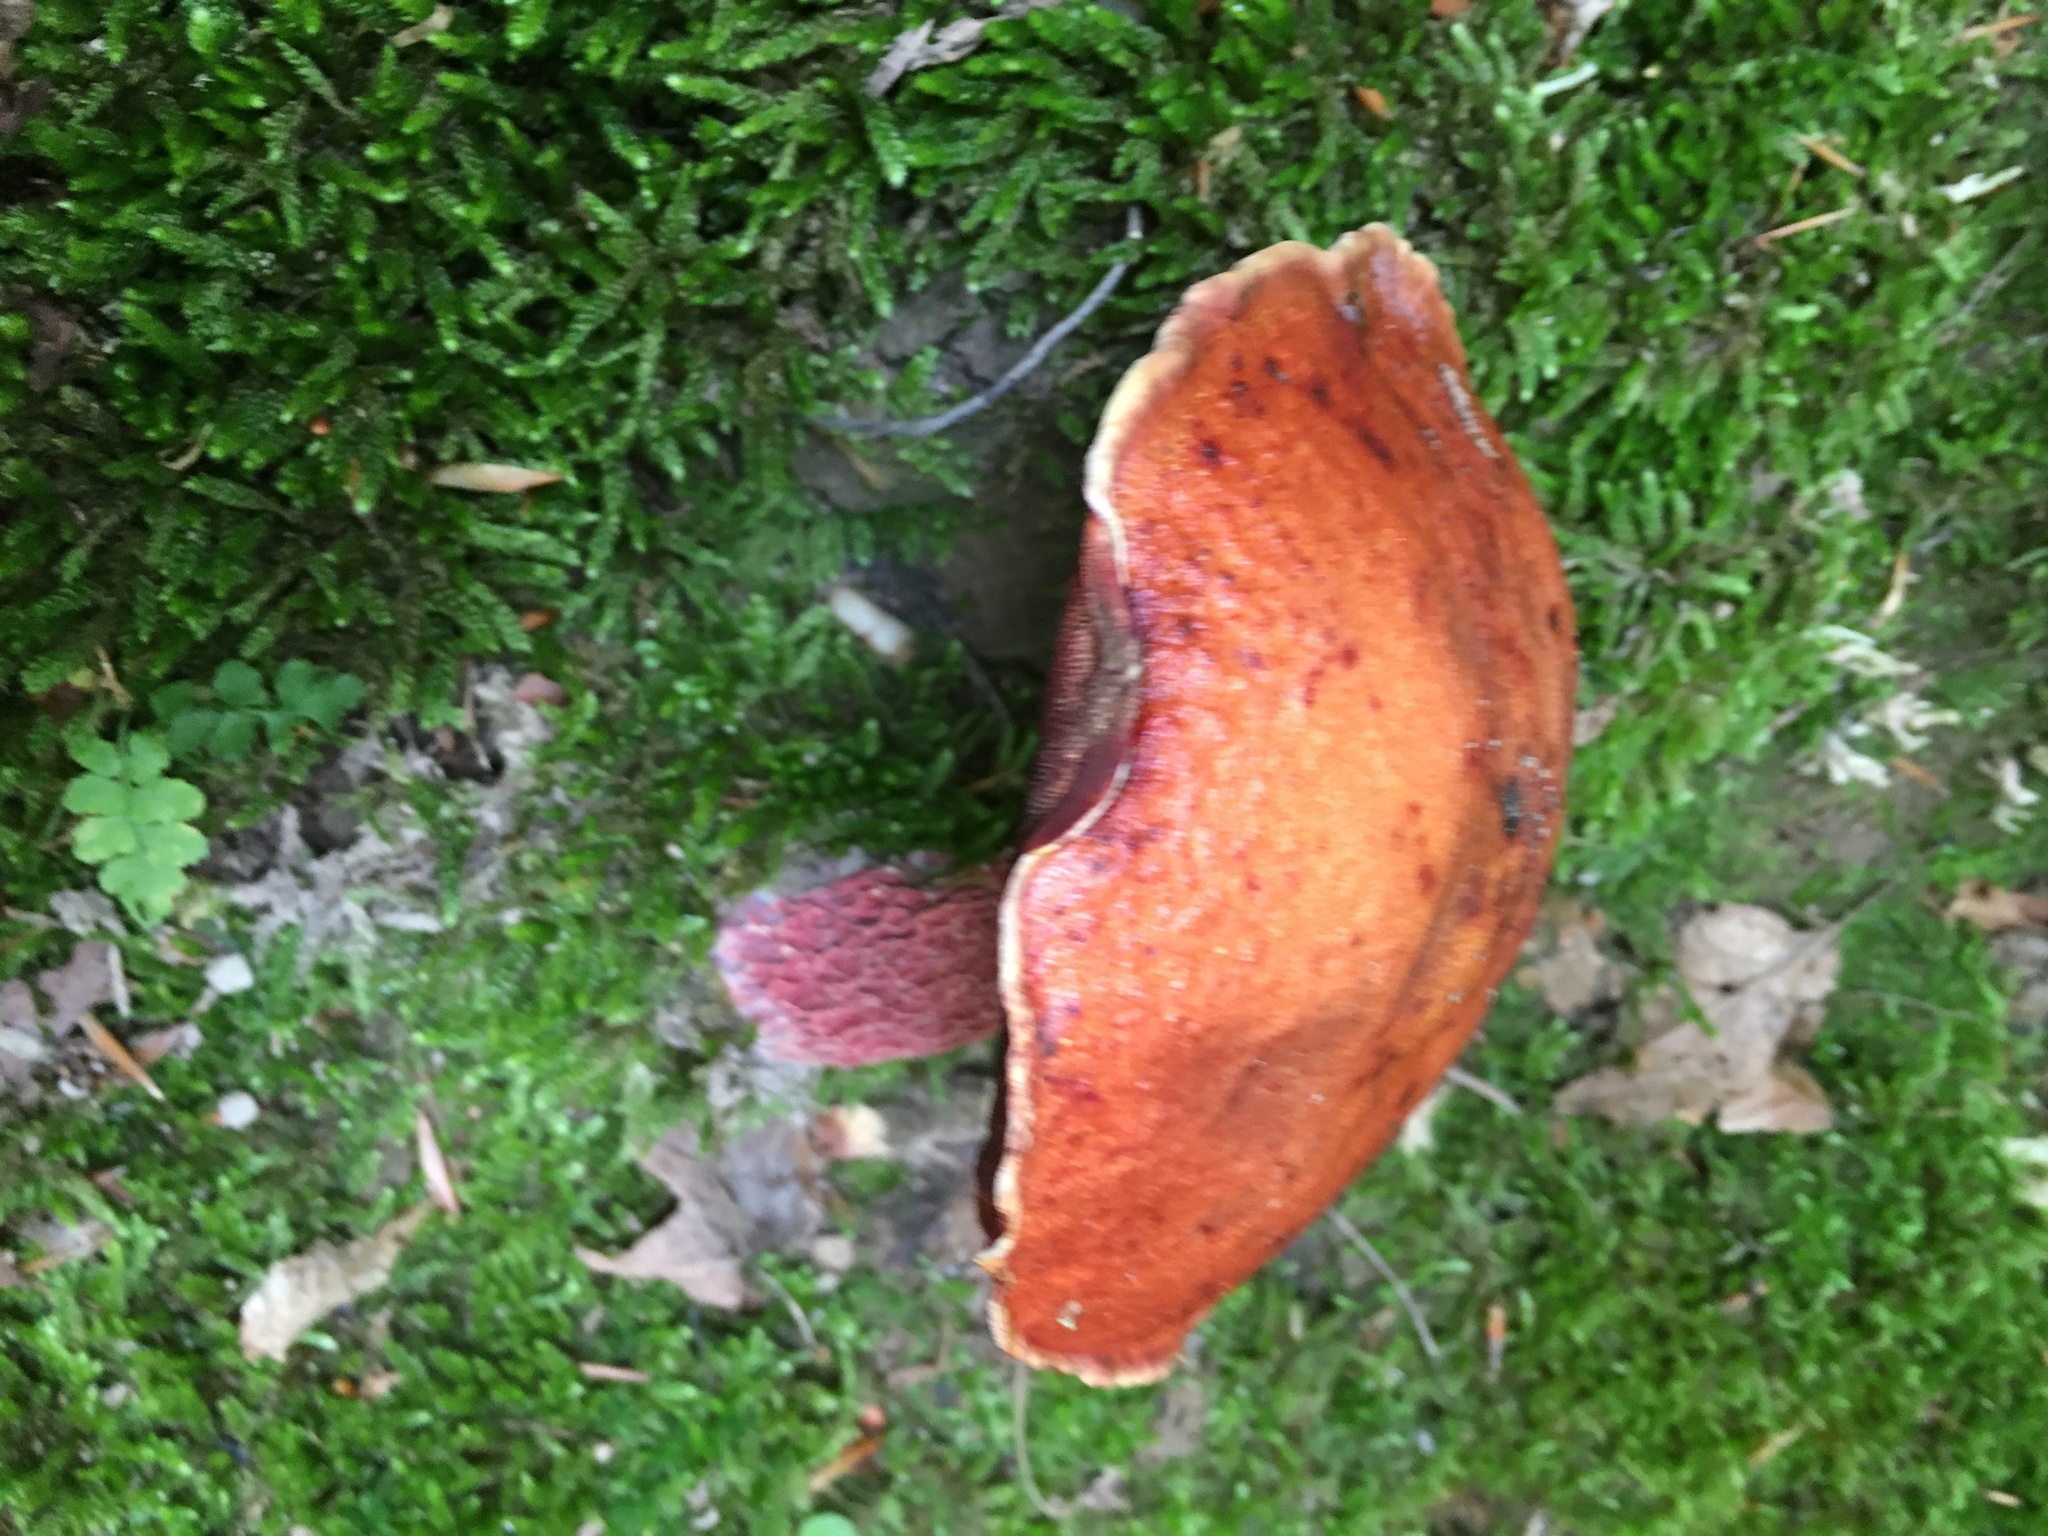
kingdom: Fungi
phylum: Basidiomycota
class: Agaricomycetes
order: Boletales
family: Boletaceae
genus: Butyriboletus
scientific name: Butyriboletus frostii
